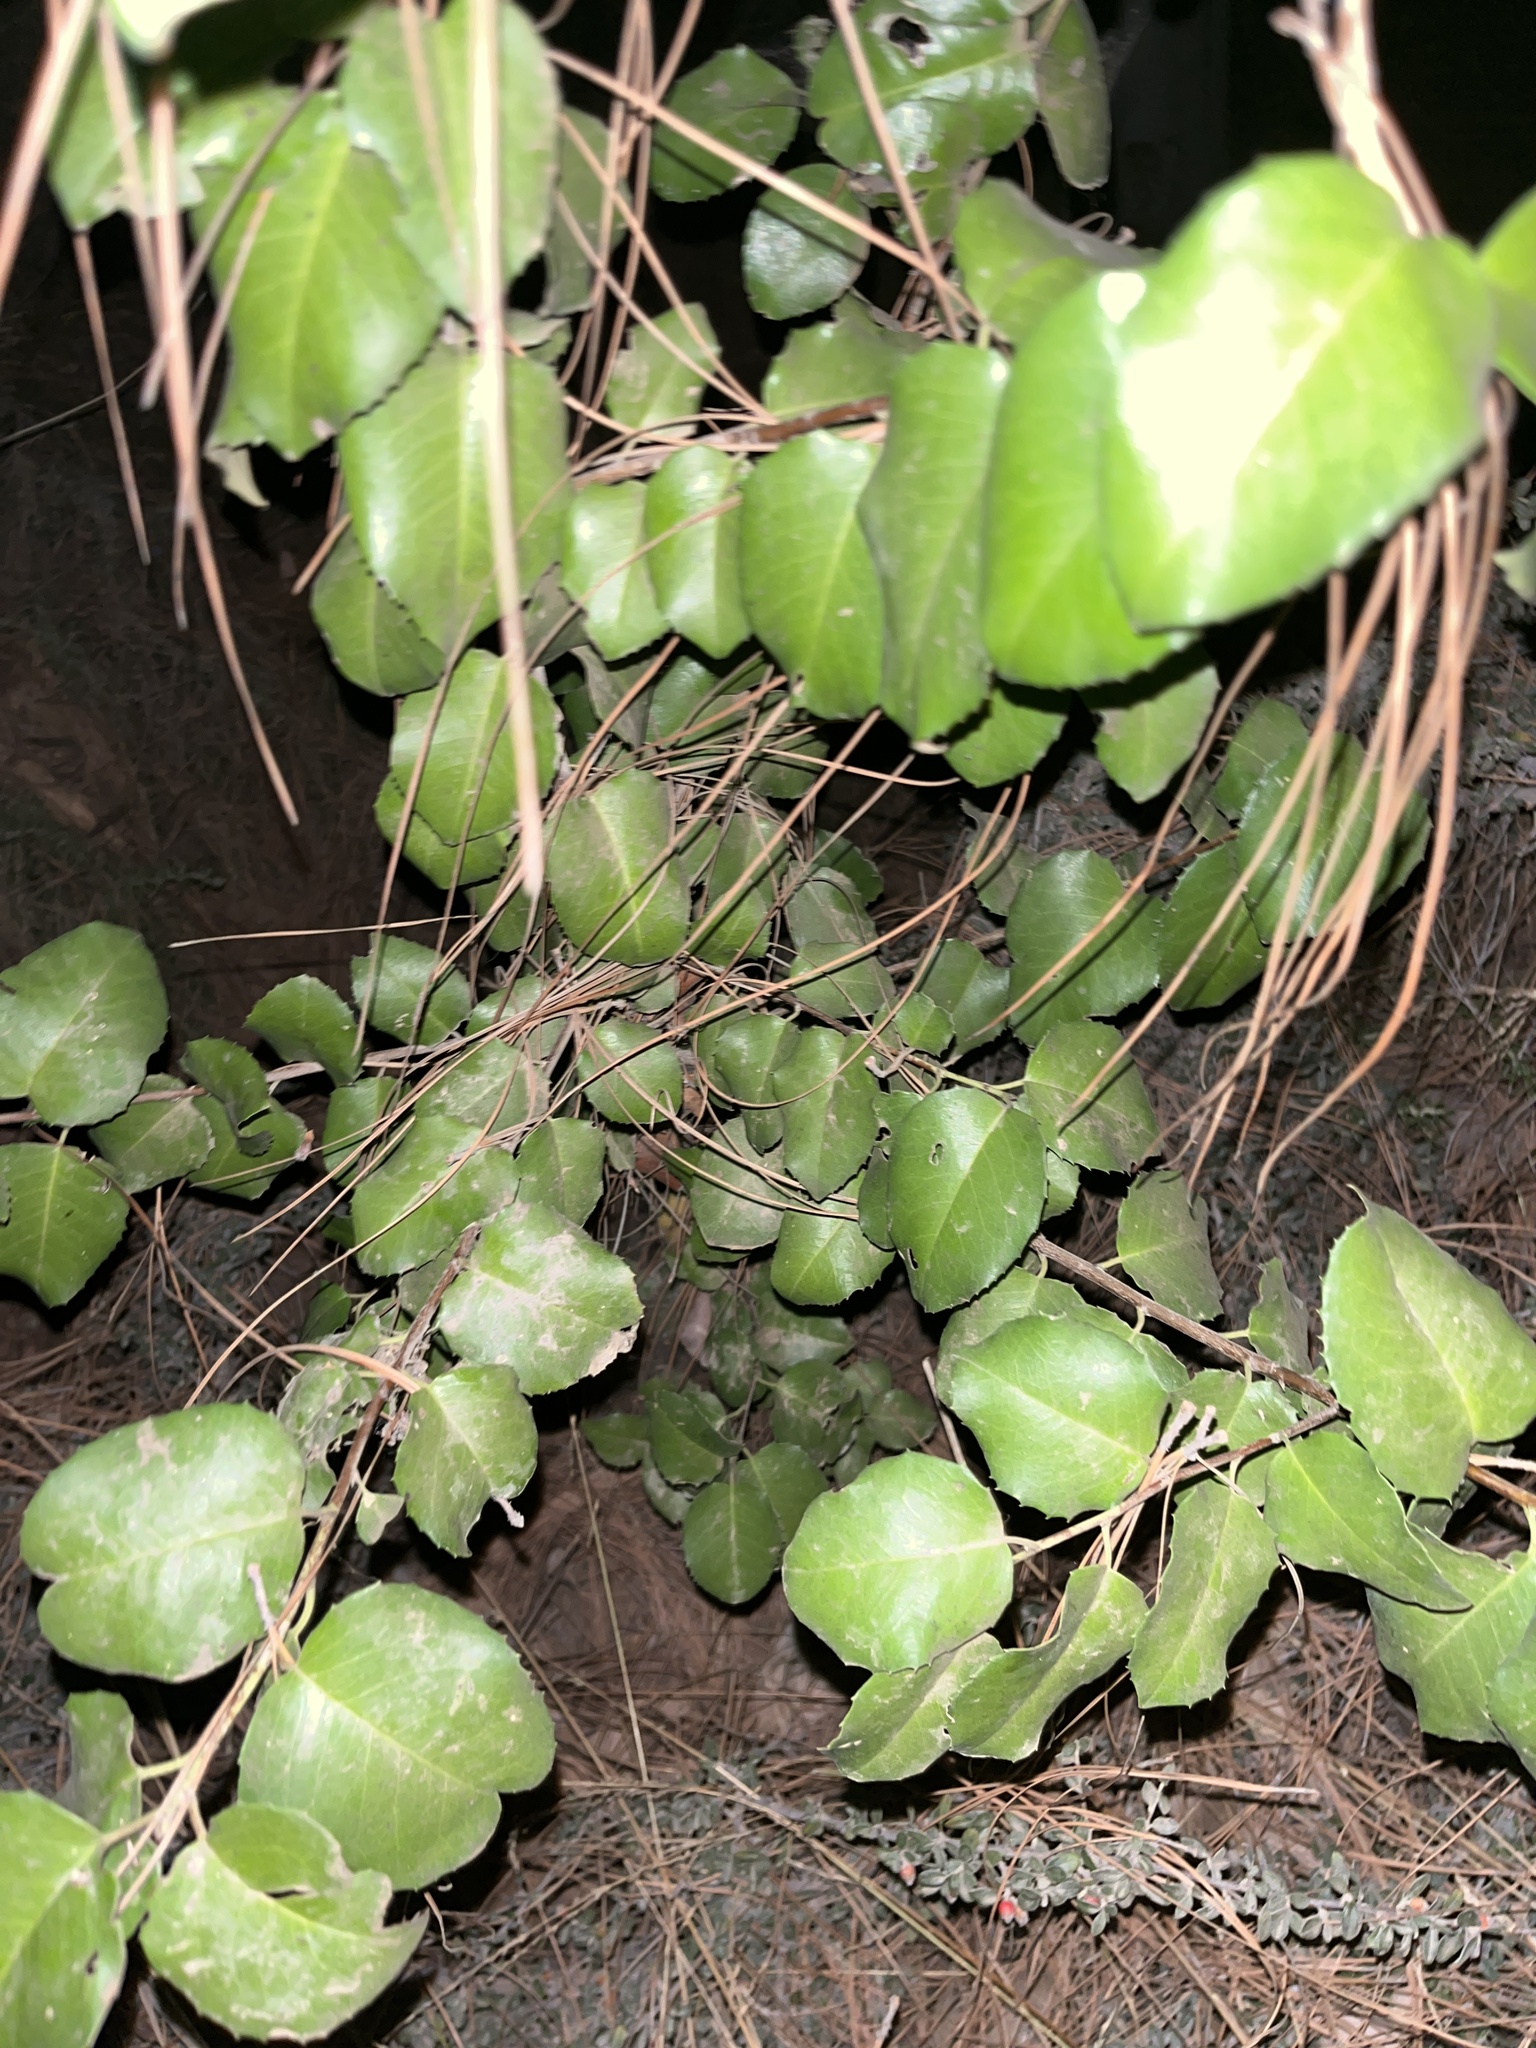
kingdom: Plantae
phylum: Tracheophyta
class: Magnoliopsida
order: Rosales
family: Rosaceae
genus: Prunus
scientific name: Prunus ilicifolia
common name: Hollyleaf cherry
